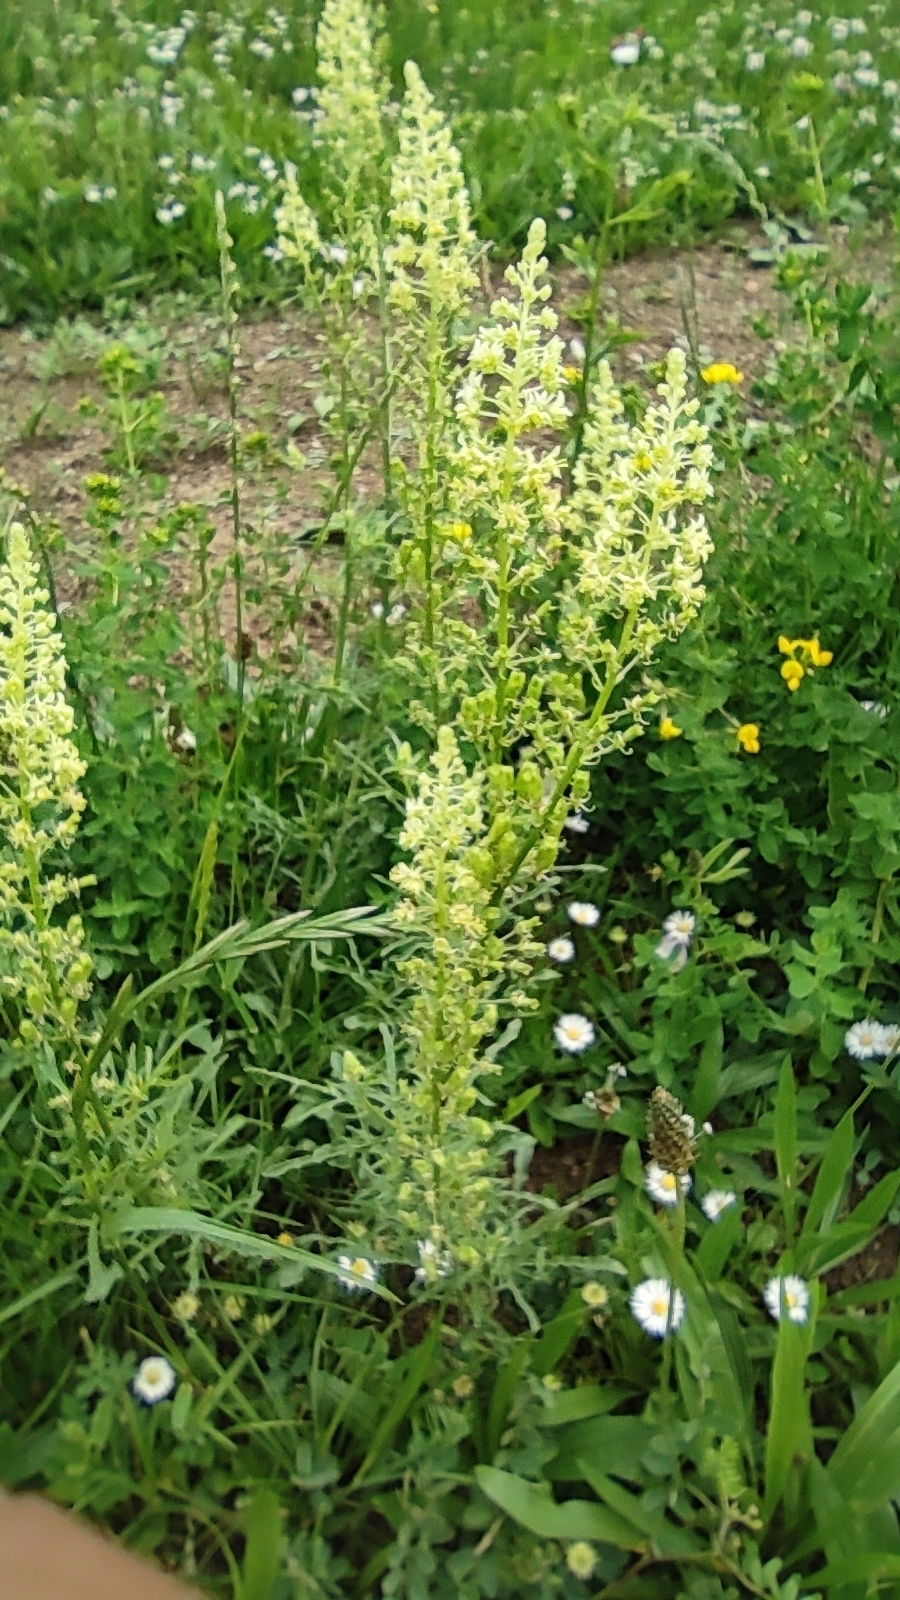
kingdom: Plantae
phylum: Tracheophyta
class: Magnoliopsida
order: Brassicales
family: Resedaceae
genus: Reseda
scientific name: Reseda lutea
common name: Wild mignonette
